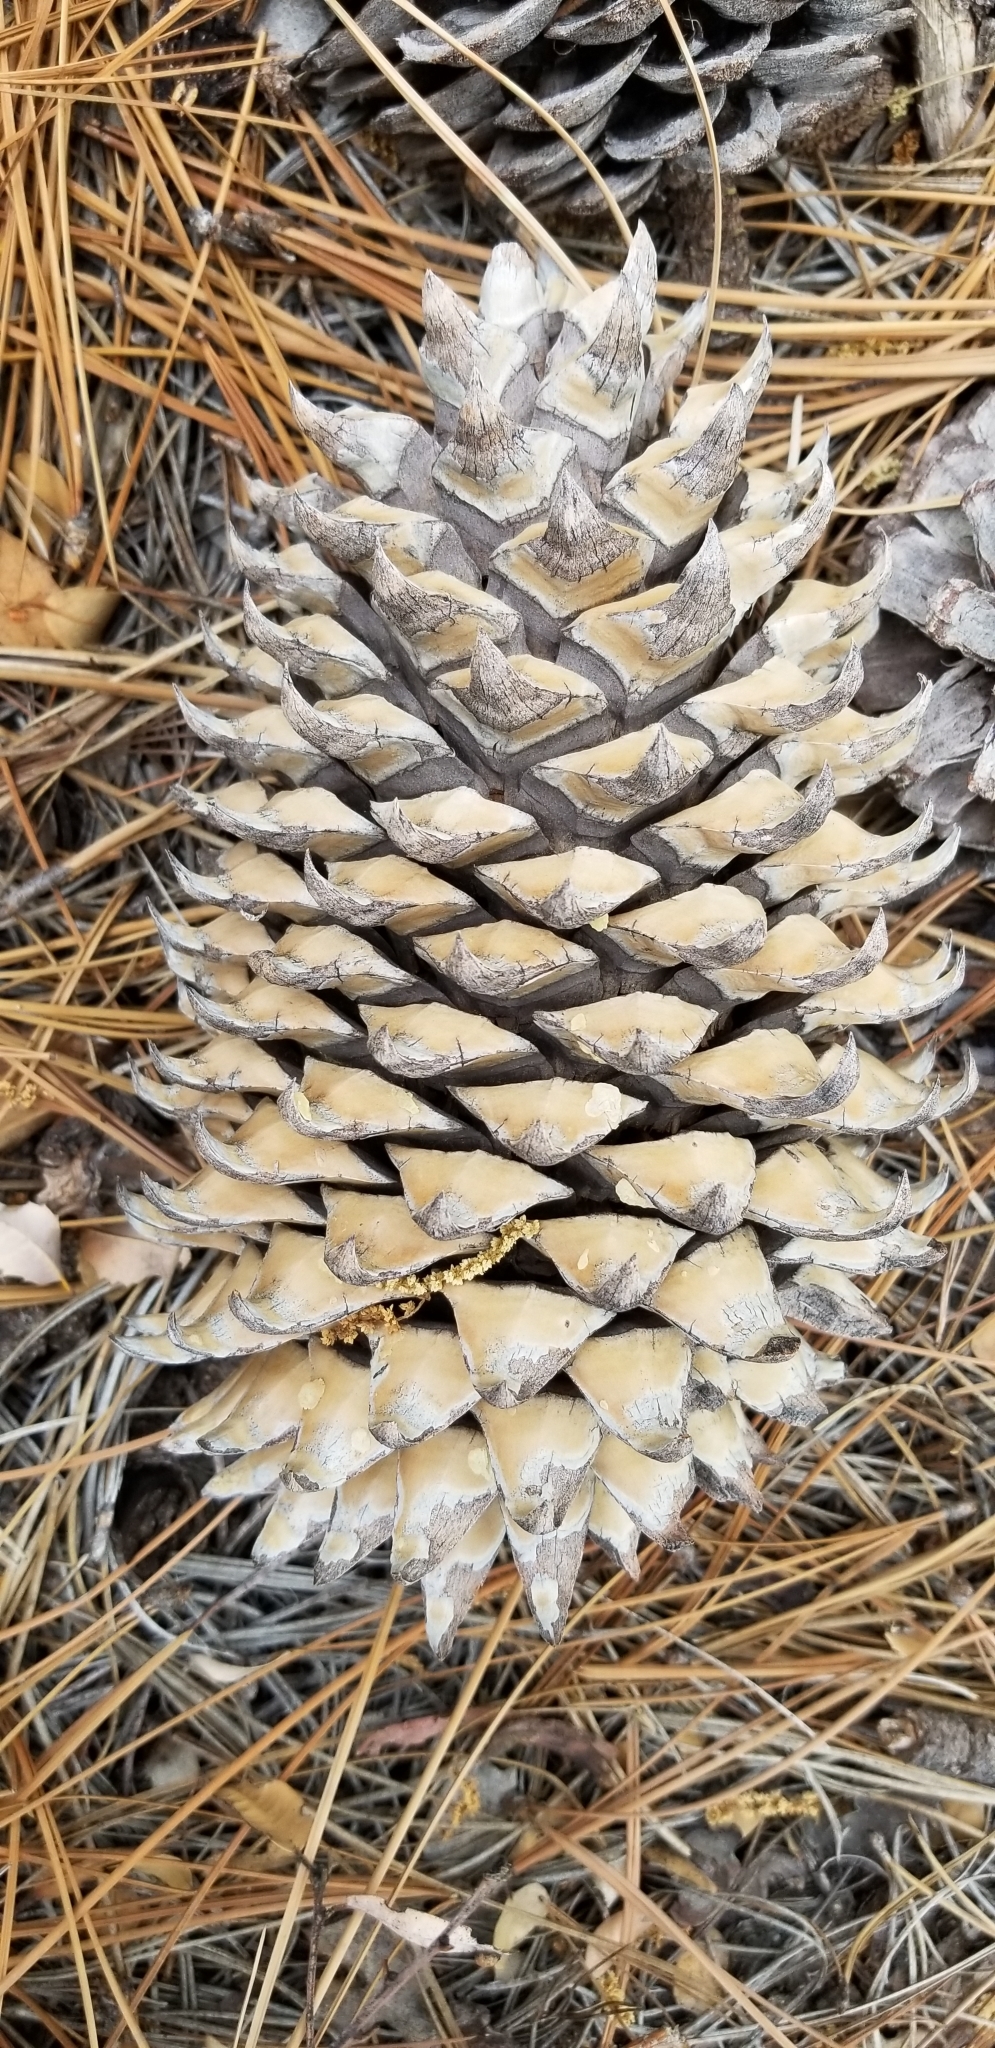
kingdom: Plantae
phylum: Tracheophyta
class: Pinopsida
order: Pinales
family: Pinaceae
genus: Pinus
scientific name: Pinus coulteri
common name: Coulter pine
